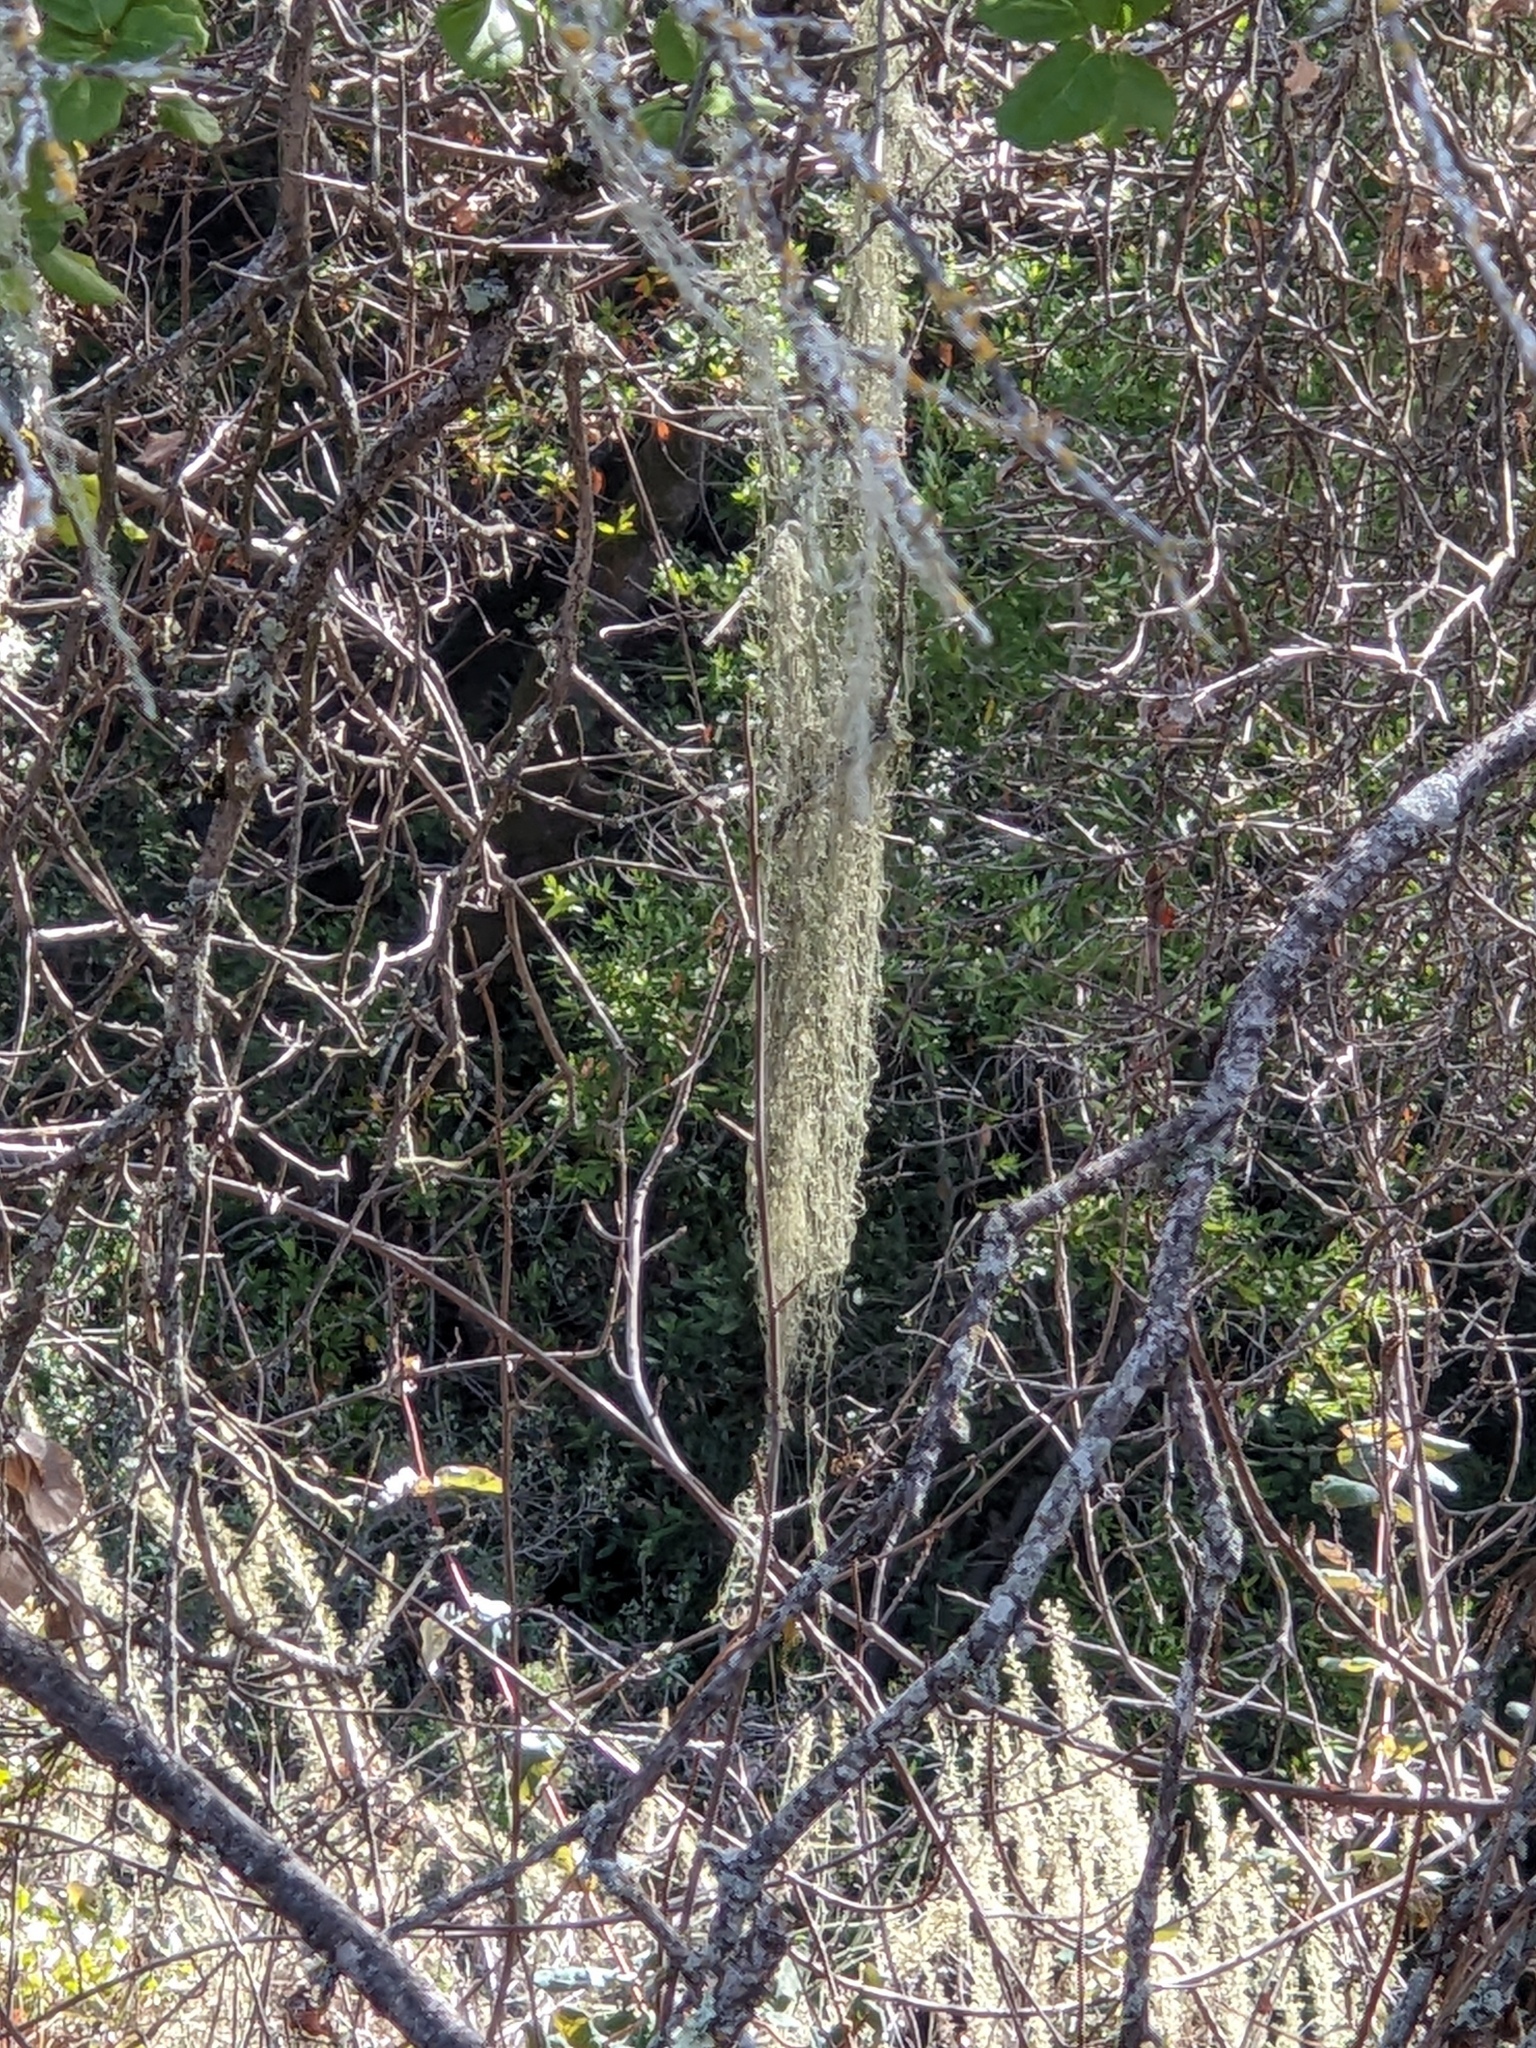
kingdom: Fungi
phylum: Ascomycota
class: Lecanoromycetes
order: Lecanorales
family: Ramalinaceae
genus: Ramalina
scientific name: Ramalina menziesii
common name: Lace lichen
